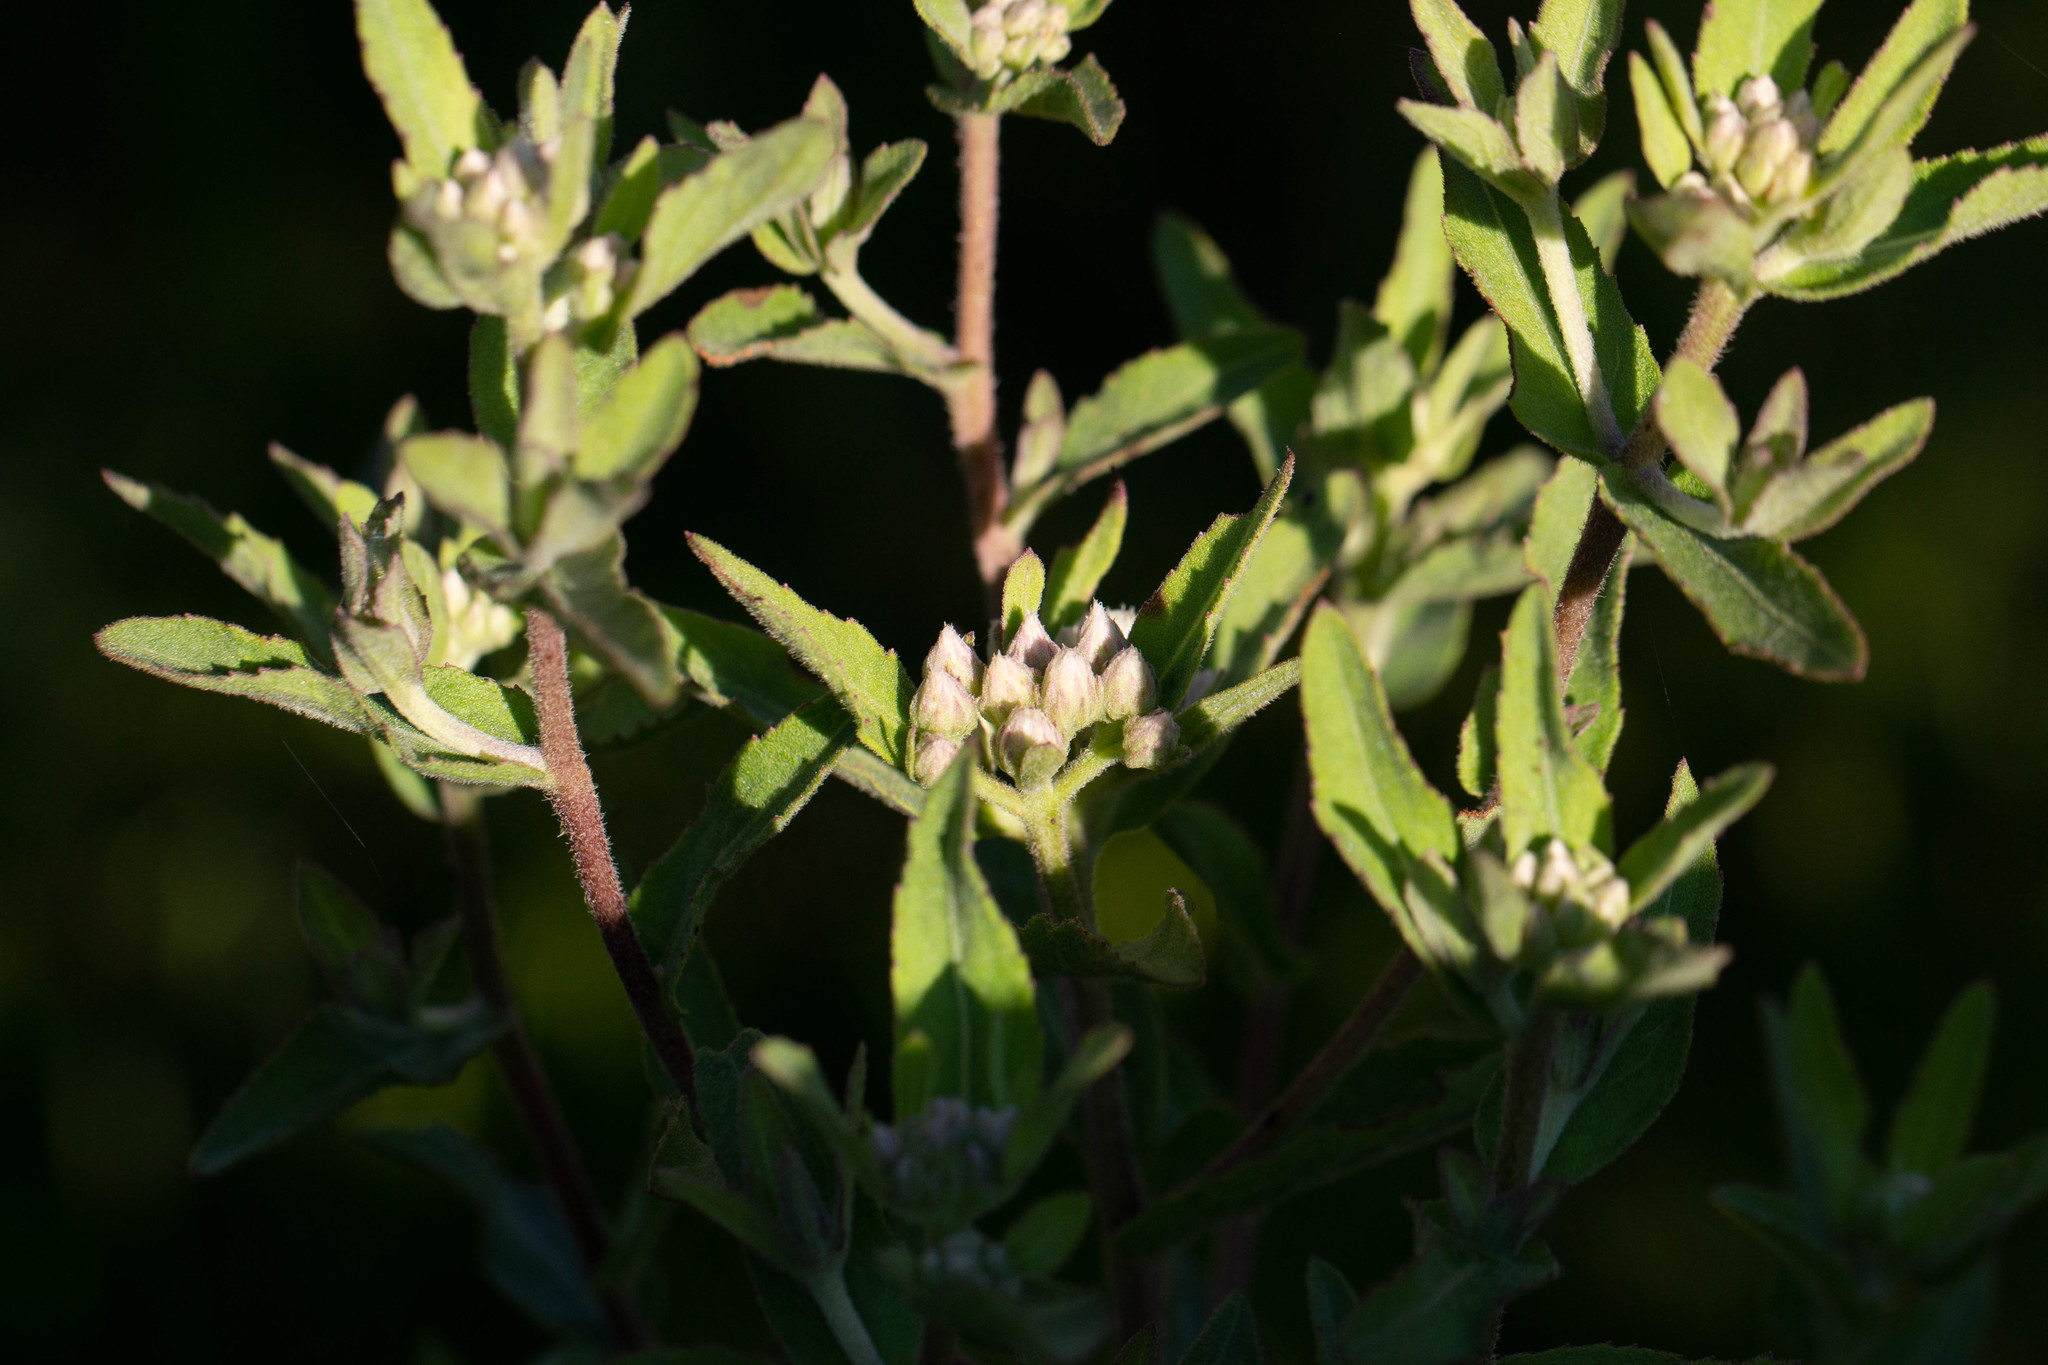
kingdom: Plantae
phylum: Tracheophyta
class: Magnoliopsida
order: Asterales
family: Asteraceae
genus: Pluchea
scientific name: Pluchea foetida
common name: Stinking camphorweed
